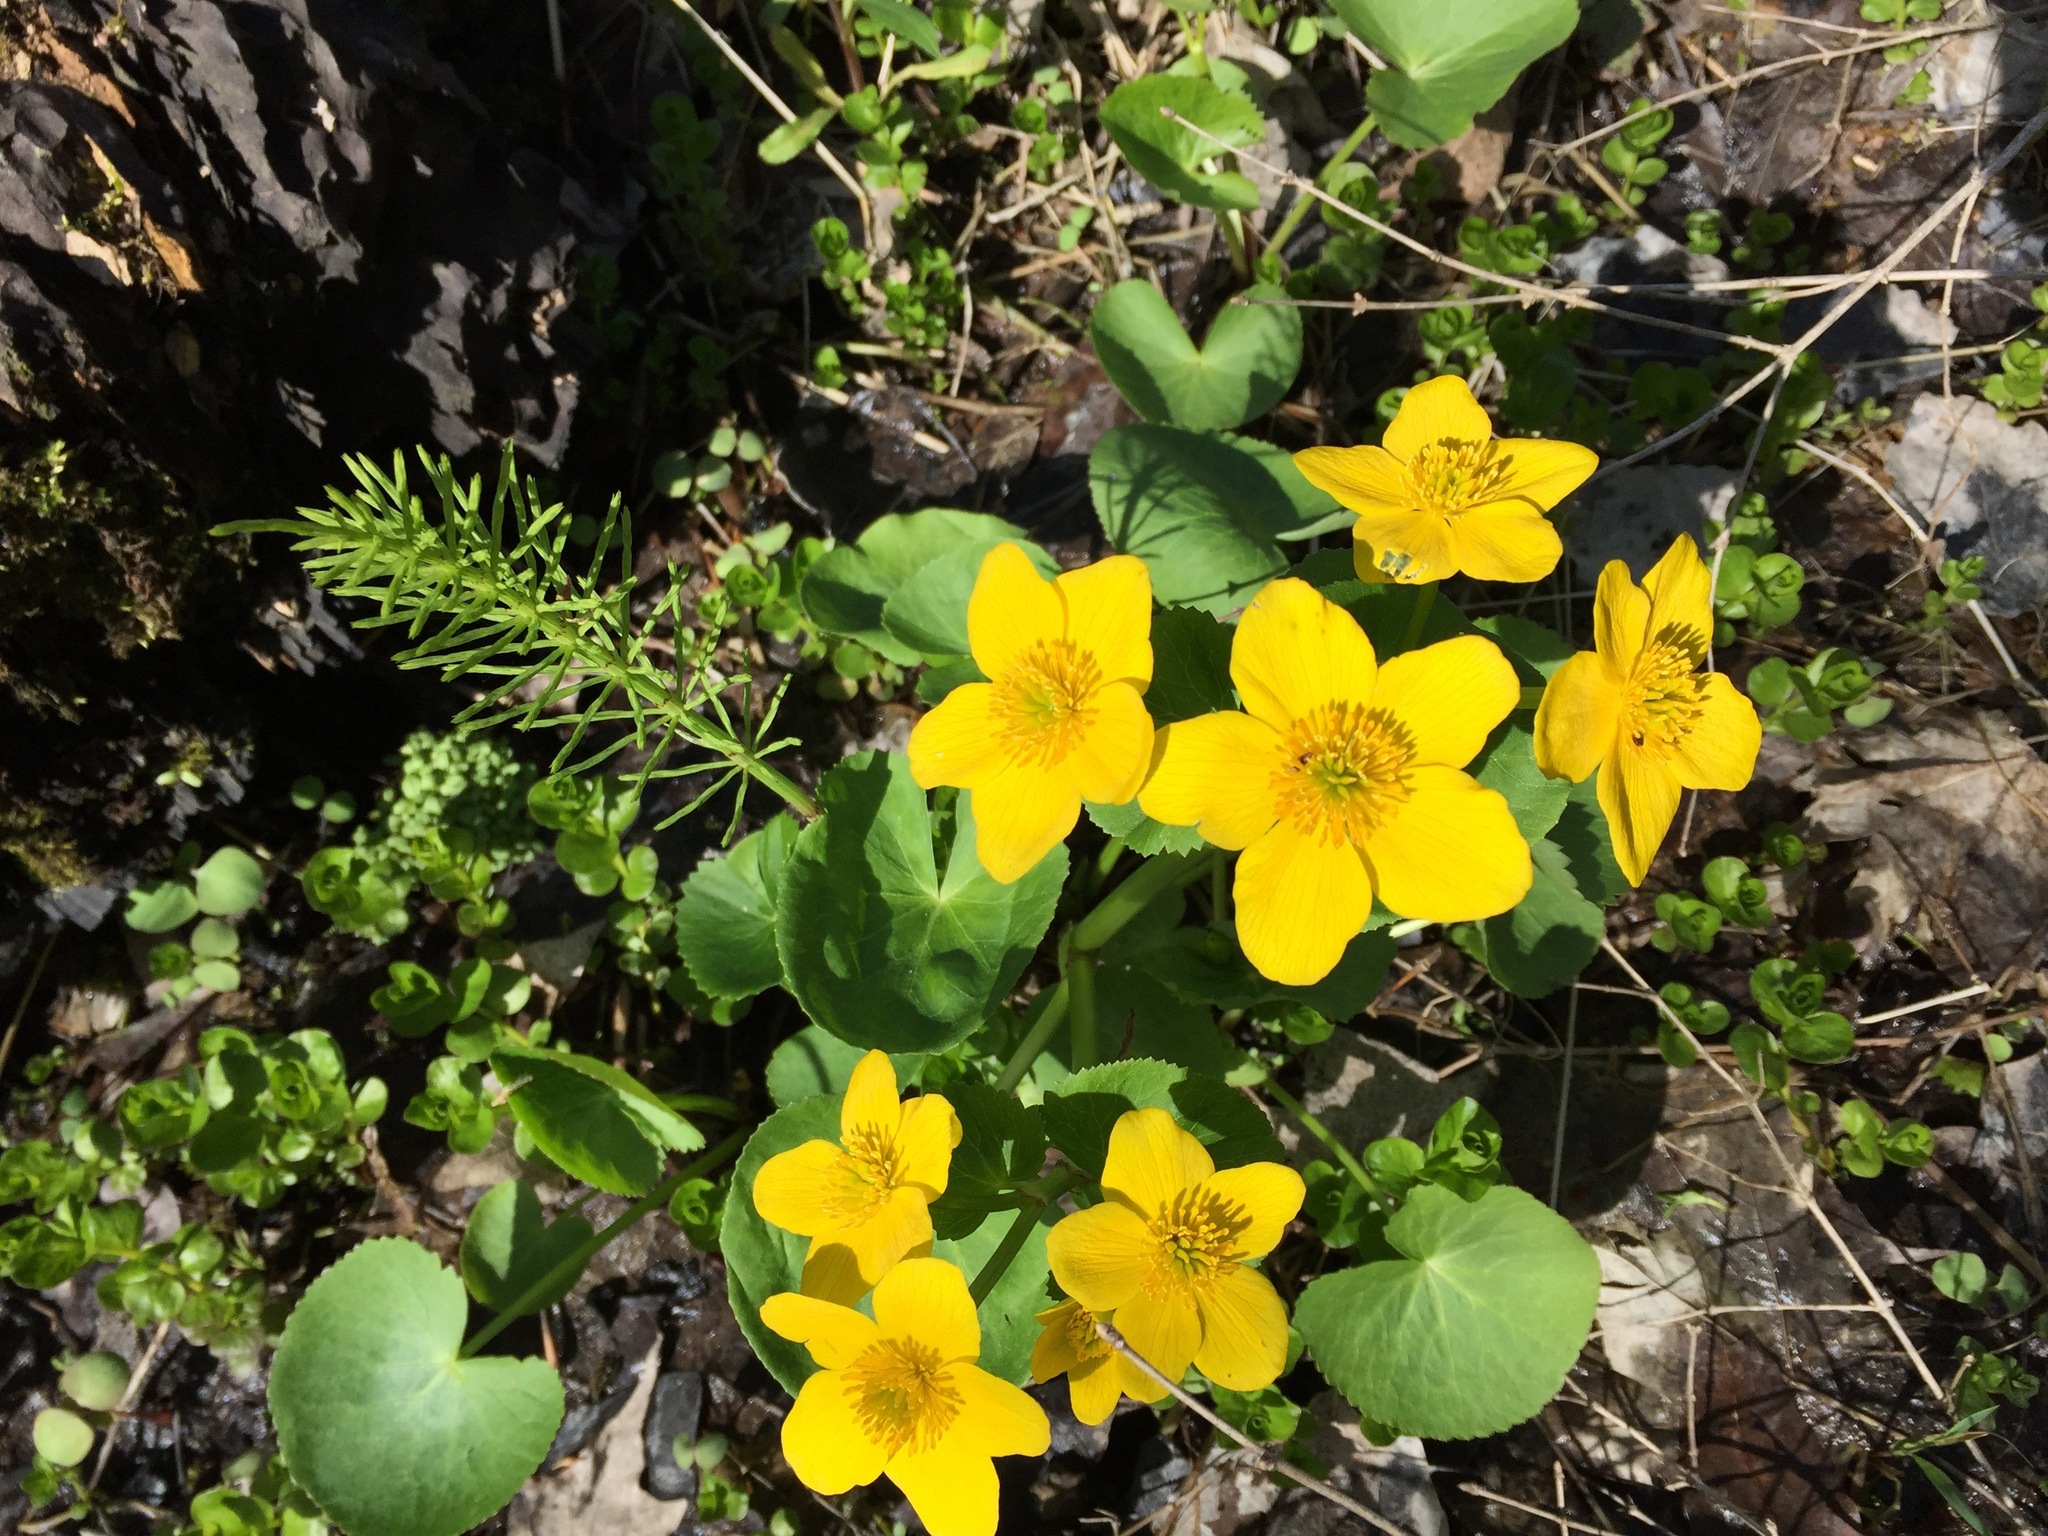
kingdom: Plantae
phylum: Tracheophyta
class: Magnoliopsida
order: Ranunculales
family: Ranunculaceae
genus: Caltha
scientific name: Caltha palustris
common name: Marsh marigold
